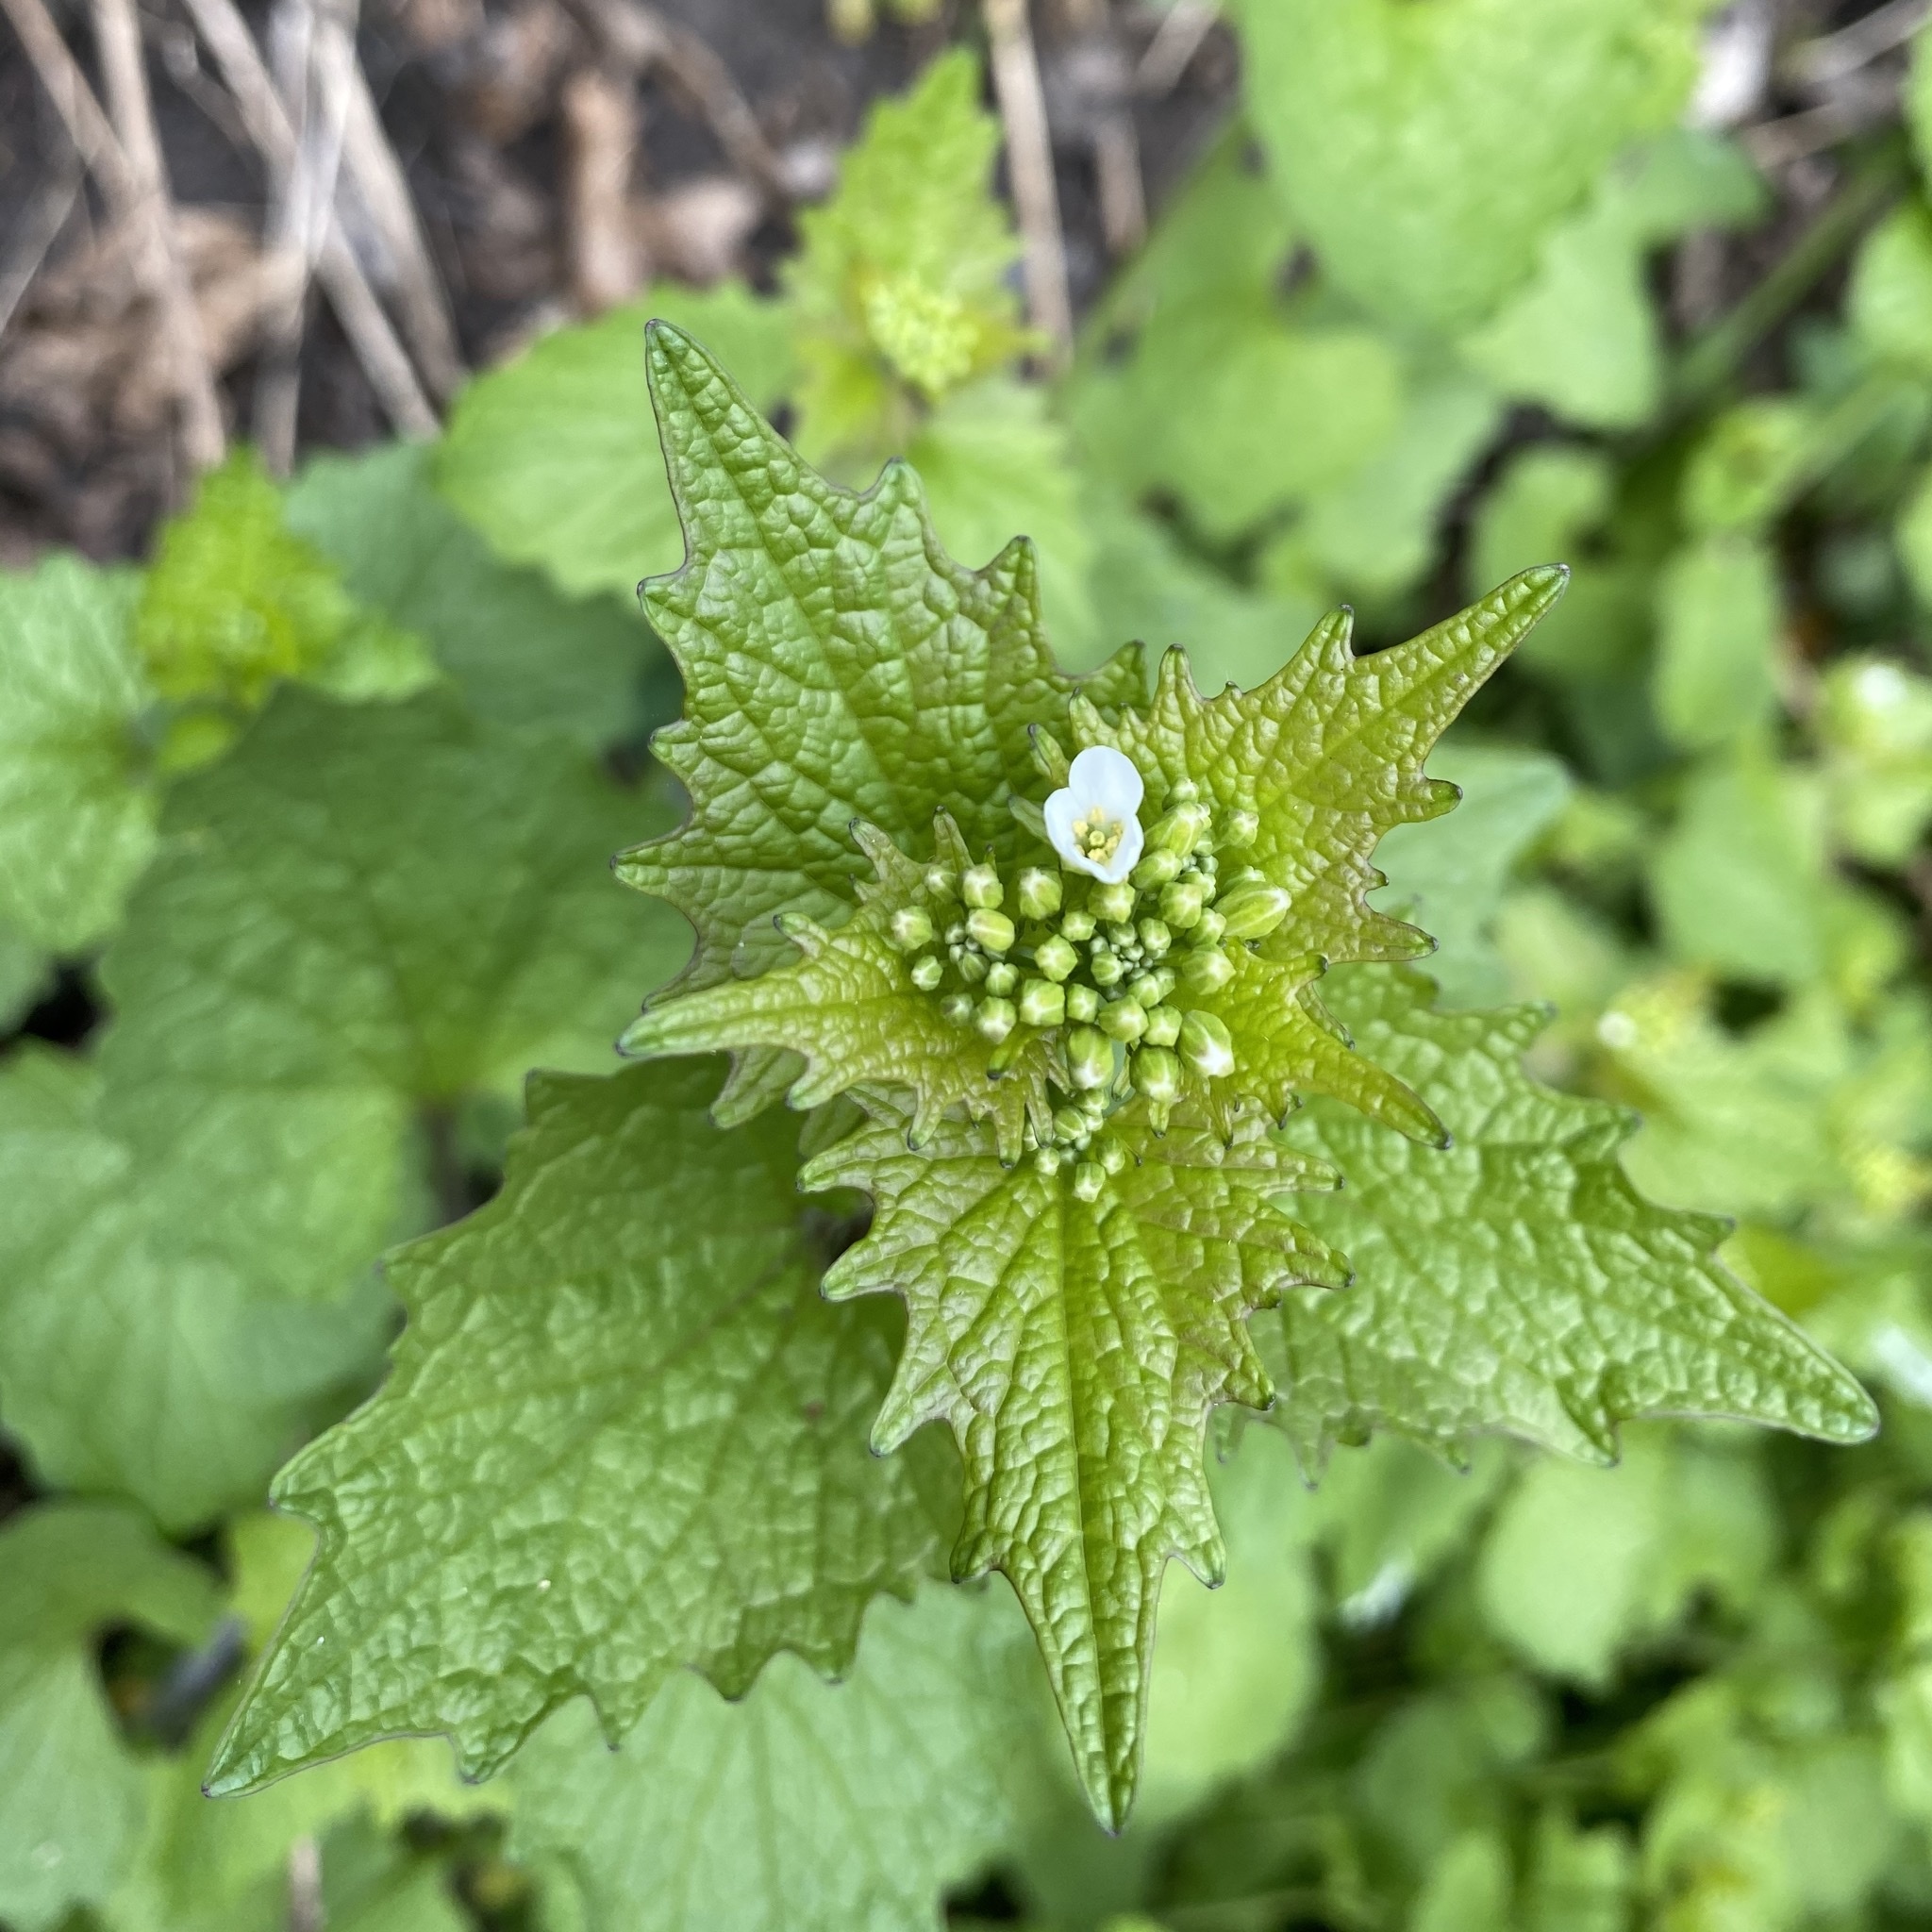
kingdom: Plantae
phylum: Tracheophyta
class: Magnoliopsida
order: Brassicales
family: Brassicaceae
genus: Alliaria
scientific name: Alliaria petiolata
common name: Garlic mustard
